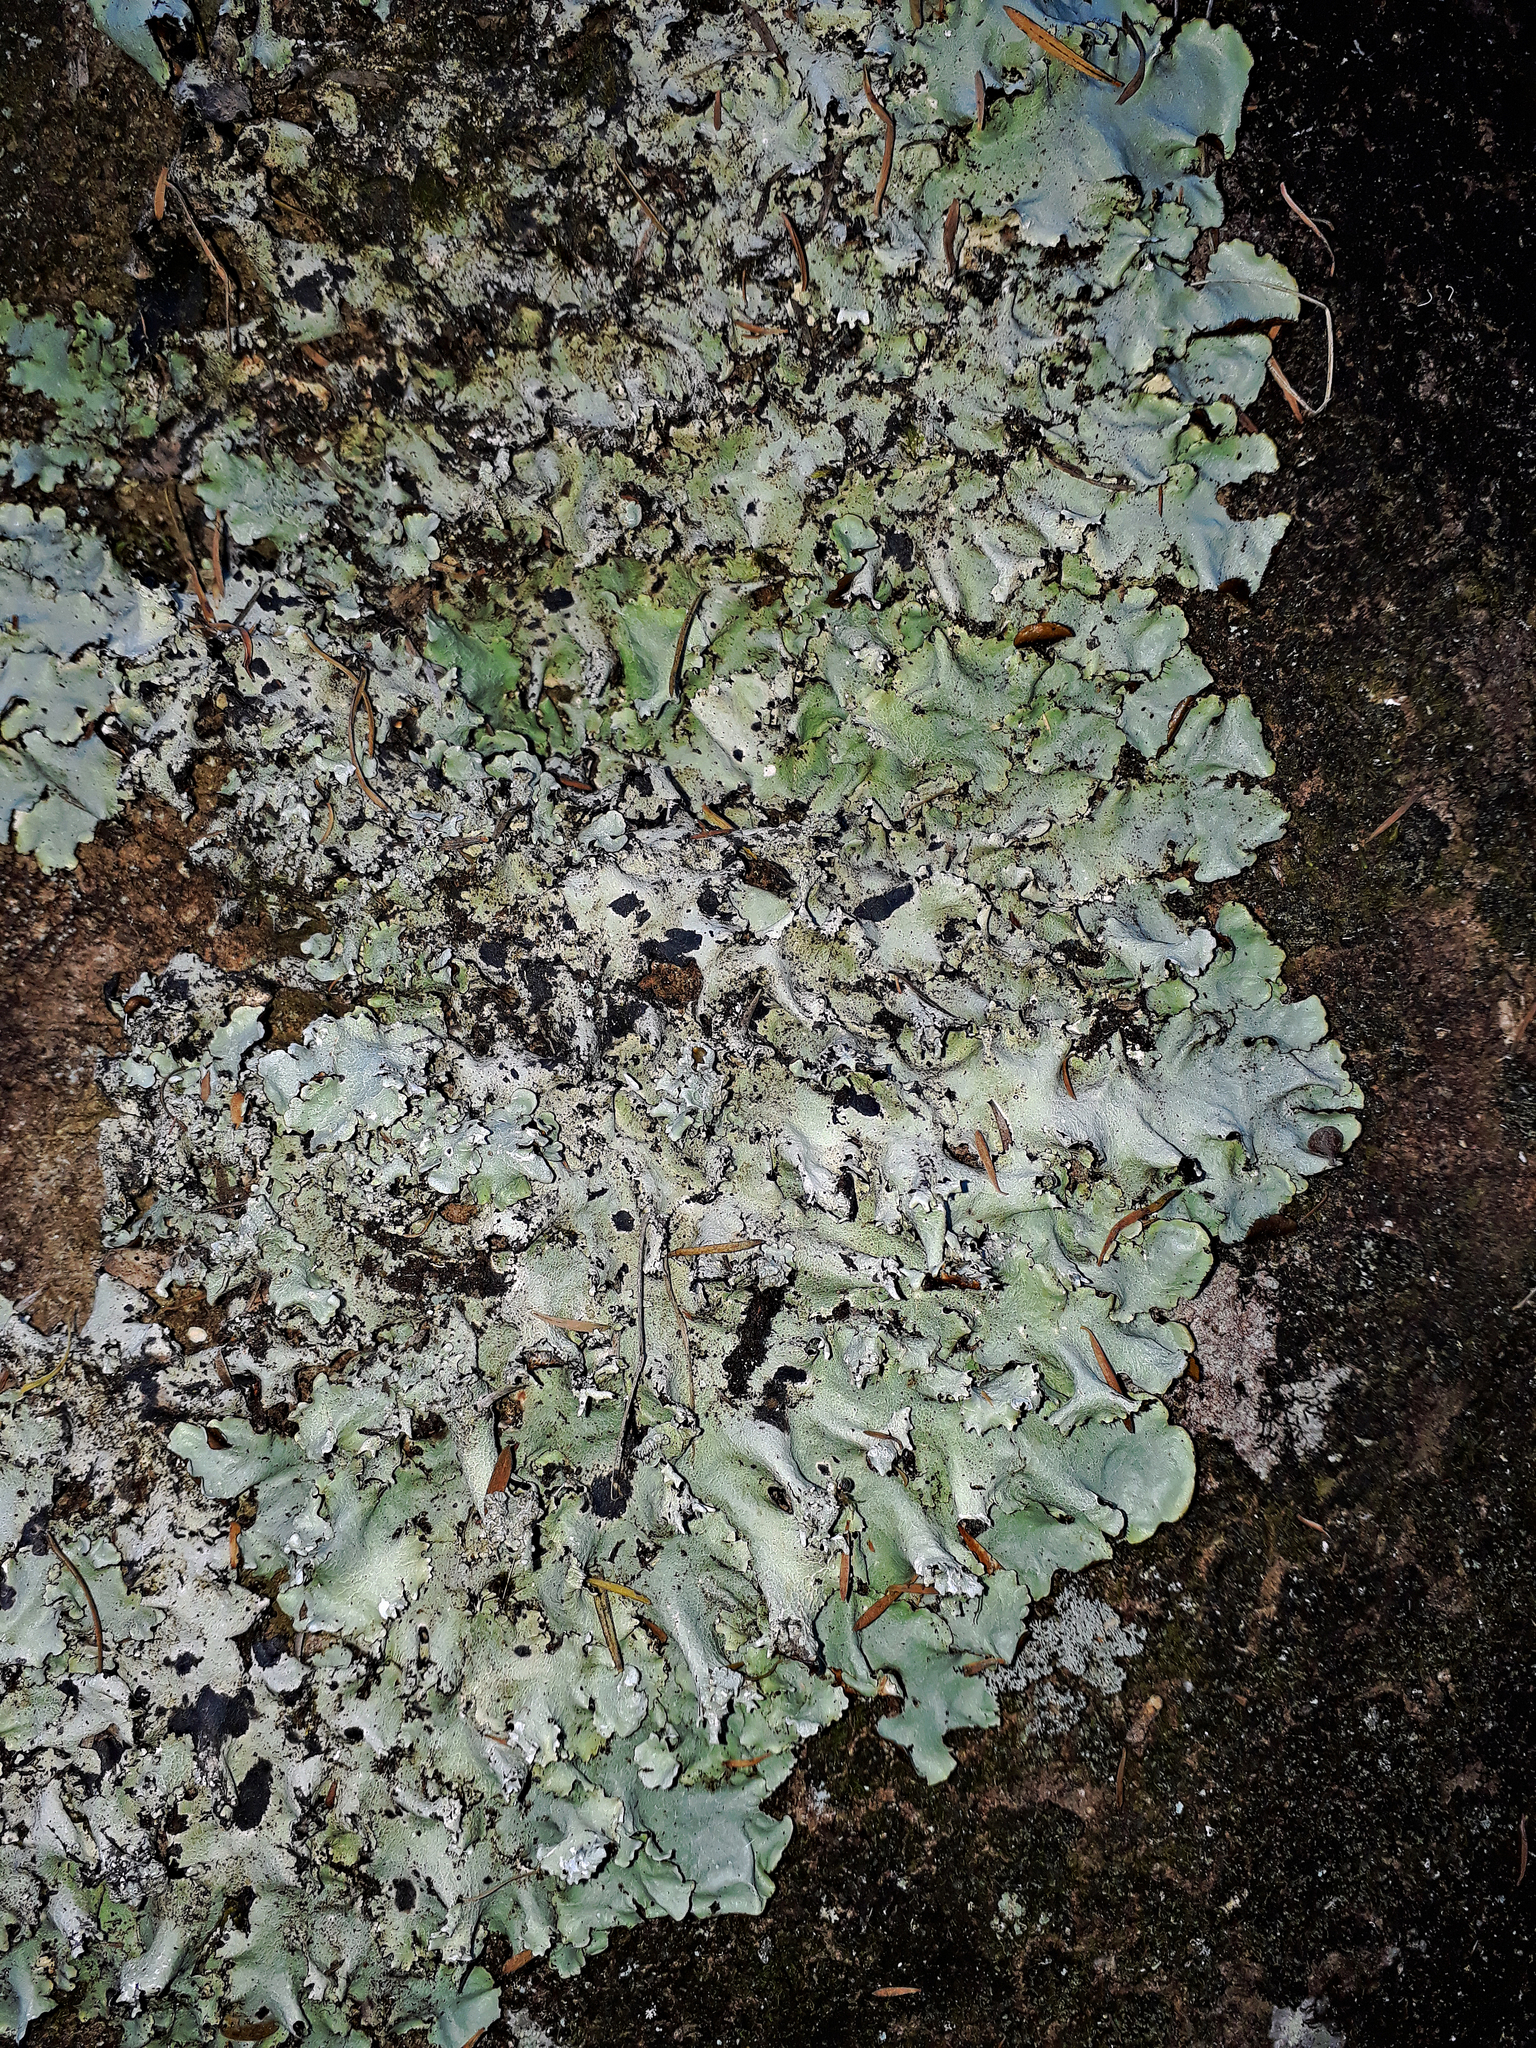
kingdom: Fungi
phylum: Ascomycota
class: Lecanoromycetes
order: Lecanorales
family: Parmeliaceae
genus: Parmotrema
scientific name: Parmotrema austrocetratum
